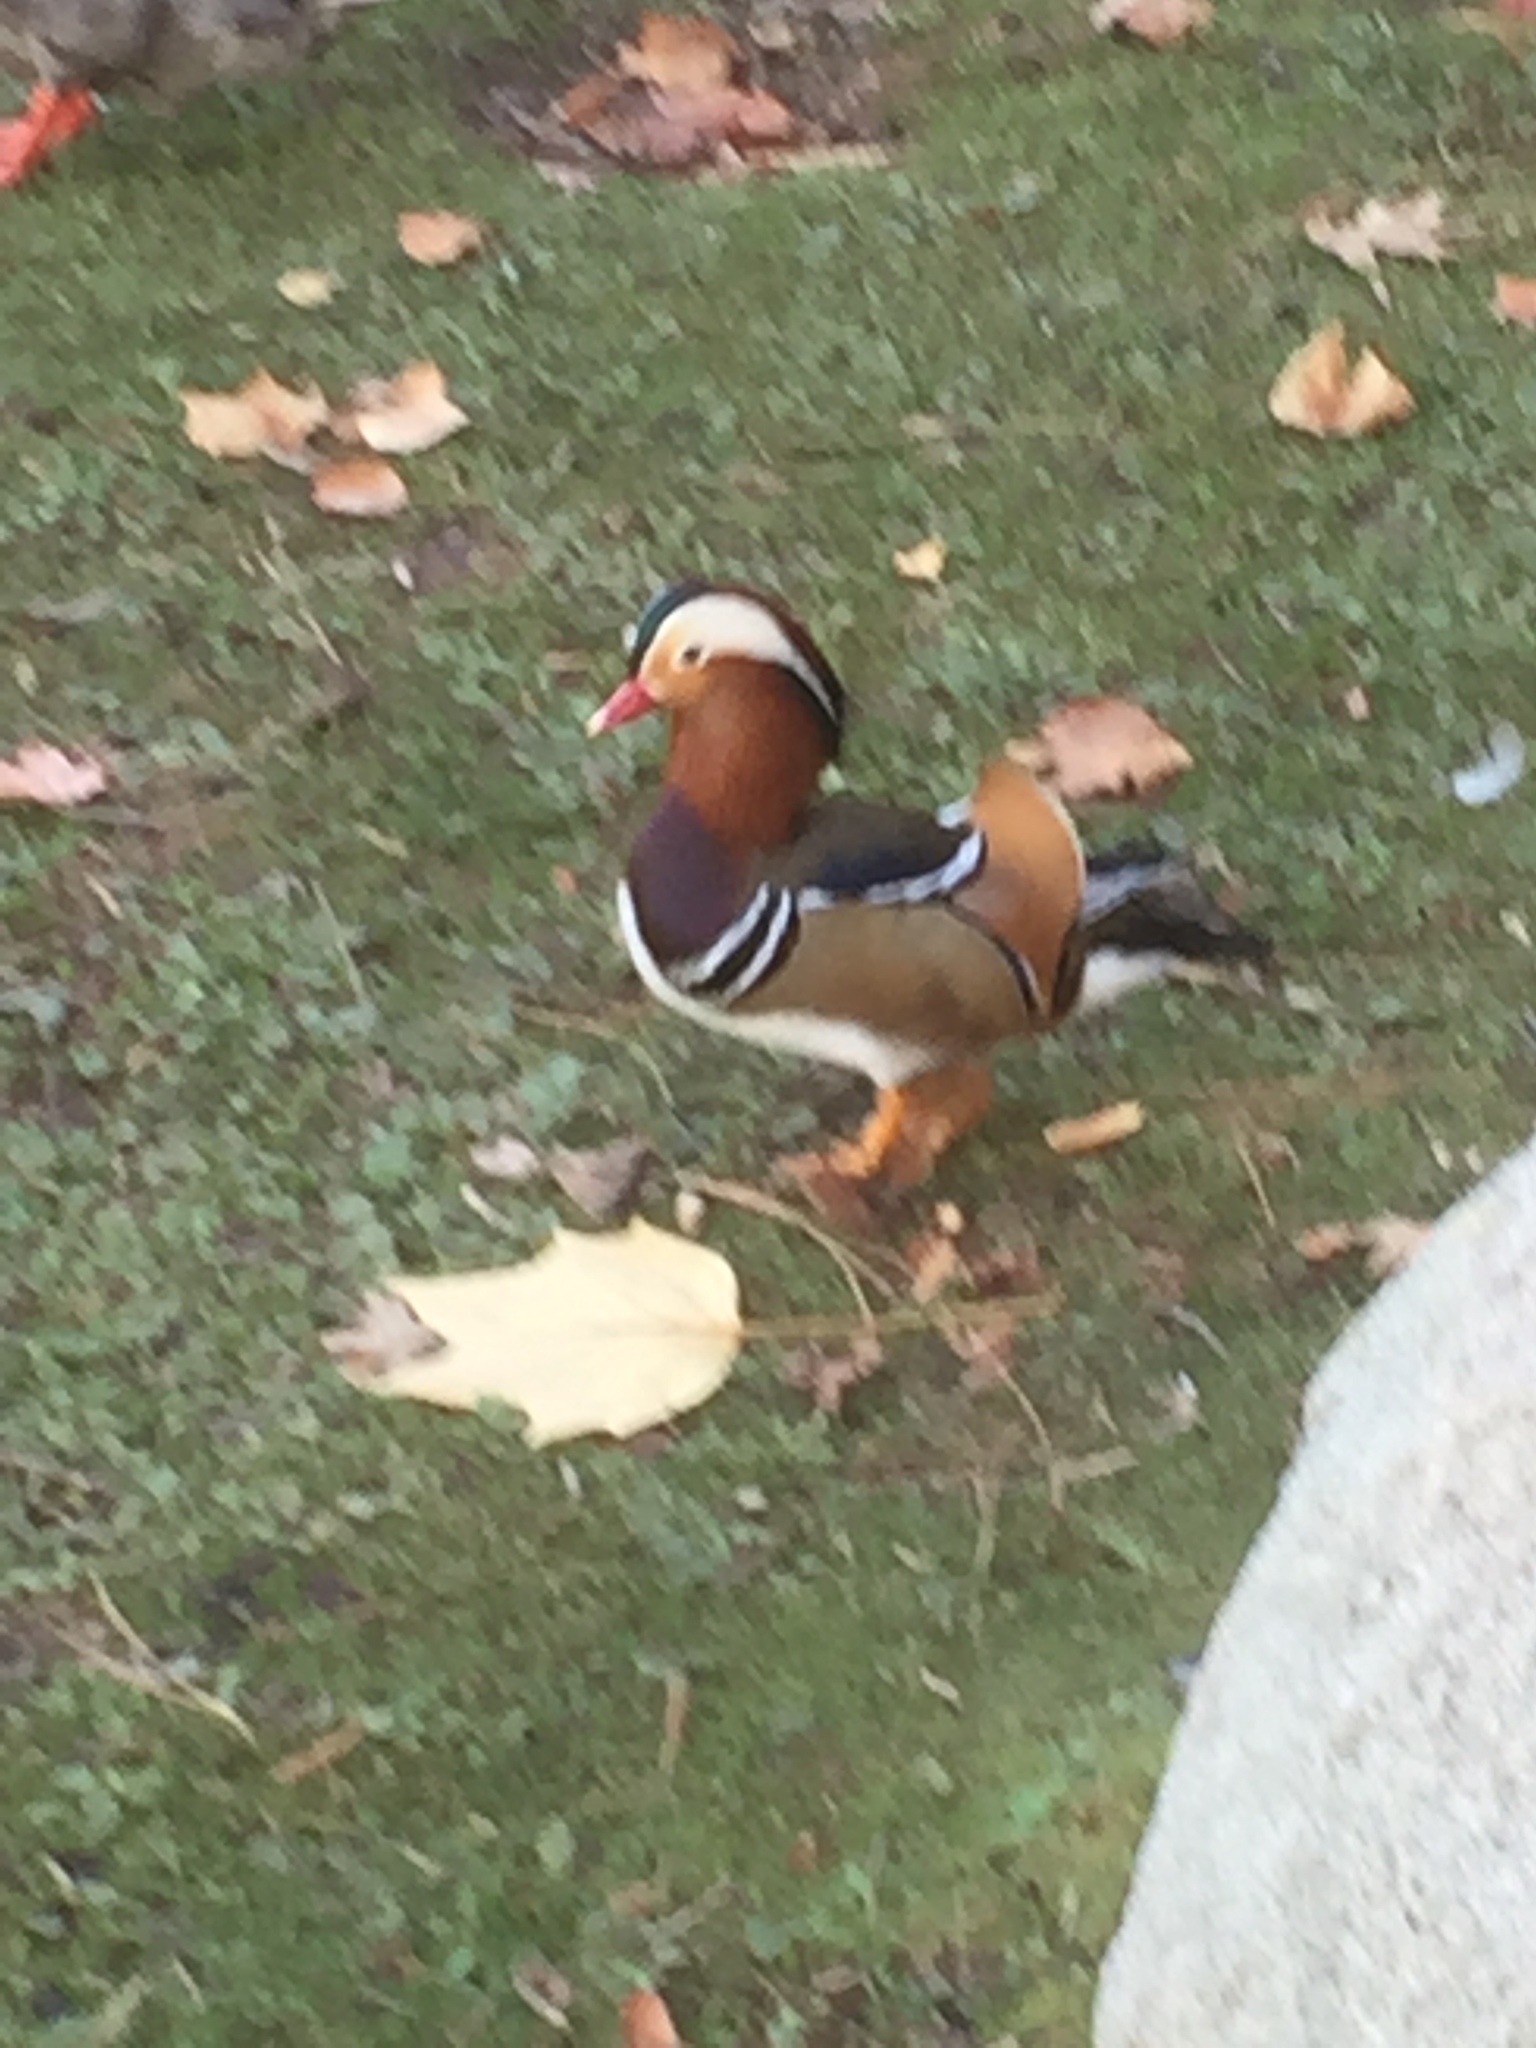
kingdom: Animalia
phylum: Chordata
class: Aves
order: Anseriformes
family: Anatidae
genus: Aix
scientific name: Aix galericulata
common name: Mandarin duck
